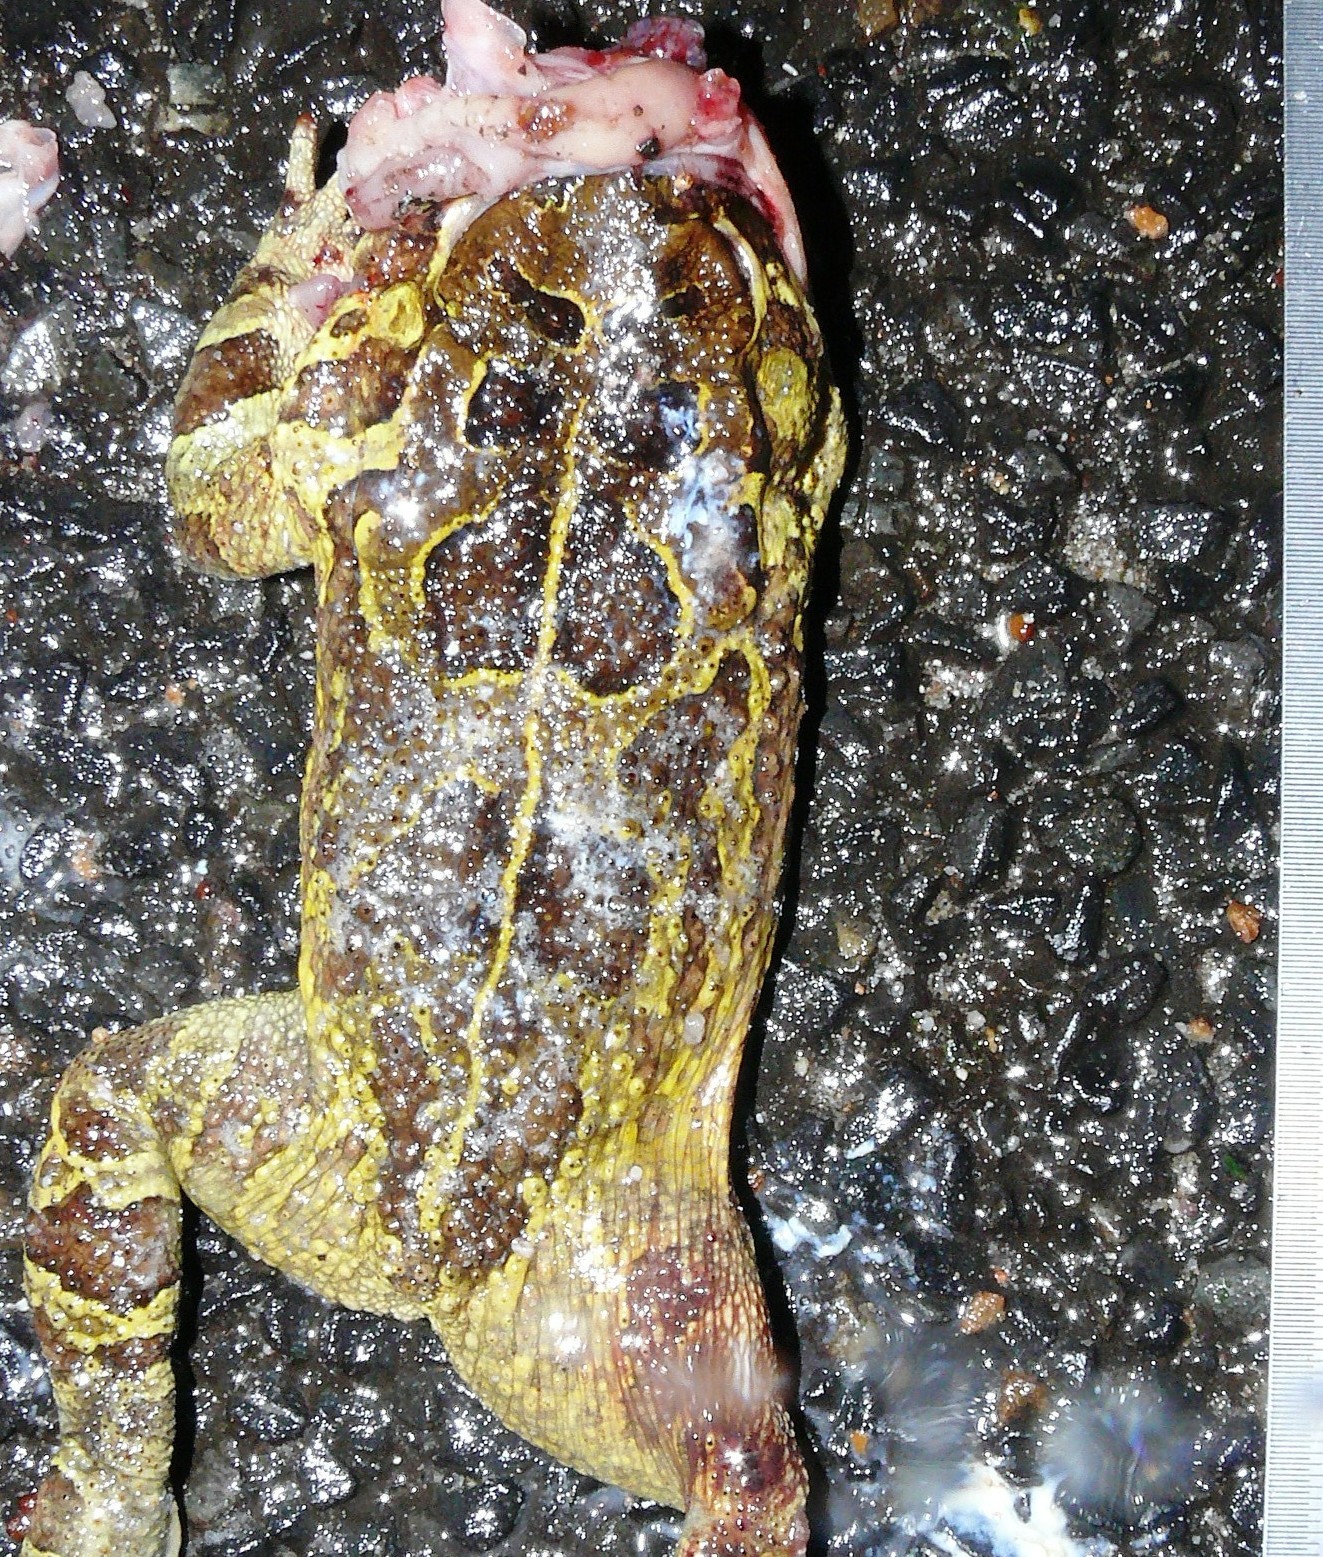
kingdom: Animalia
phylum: Chordata
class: Amphibia
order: Anura
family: Bufonidae
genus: Sclerophrys
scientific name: Sclerophrys pantherina
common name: Panther toad
